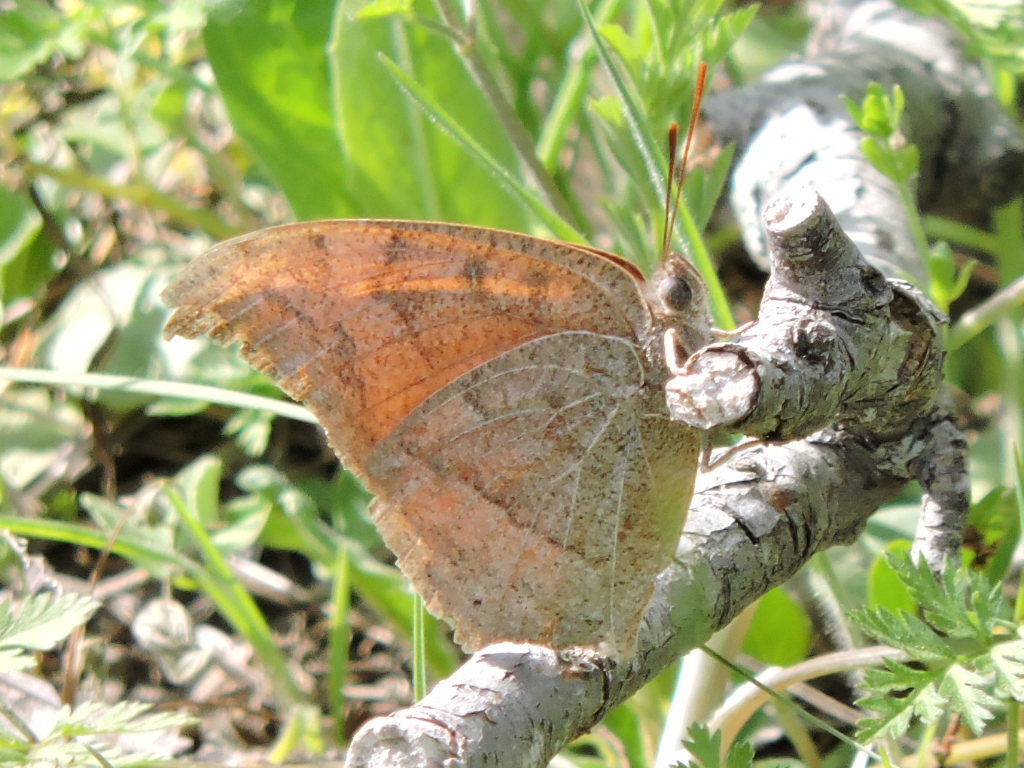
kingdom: Animalia
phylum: Arthropoda
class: Insecta
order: Lepidoptera
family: Nymphalidae
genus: Anaea
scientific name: Anaea andria
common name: Goatweed leafwing
